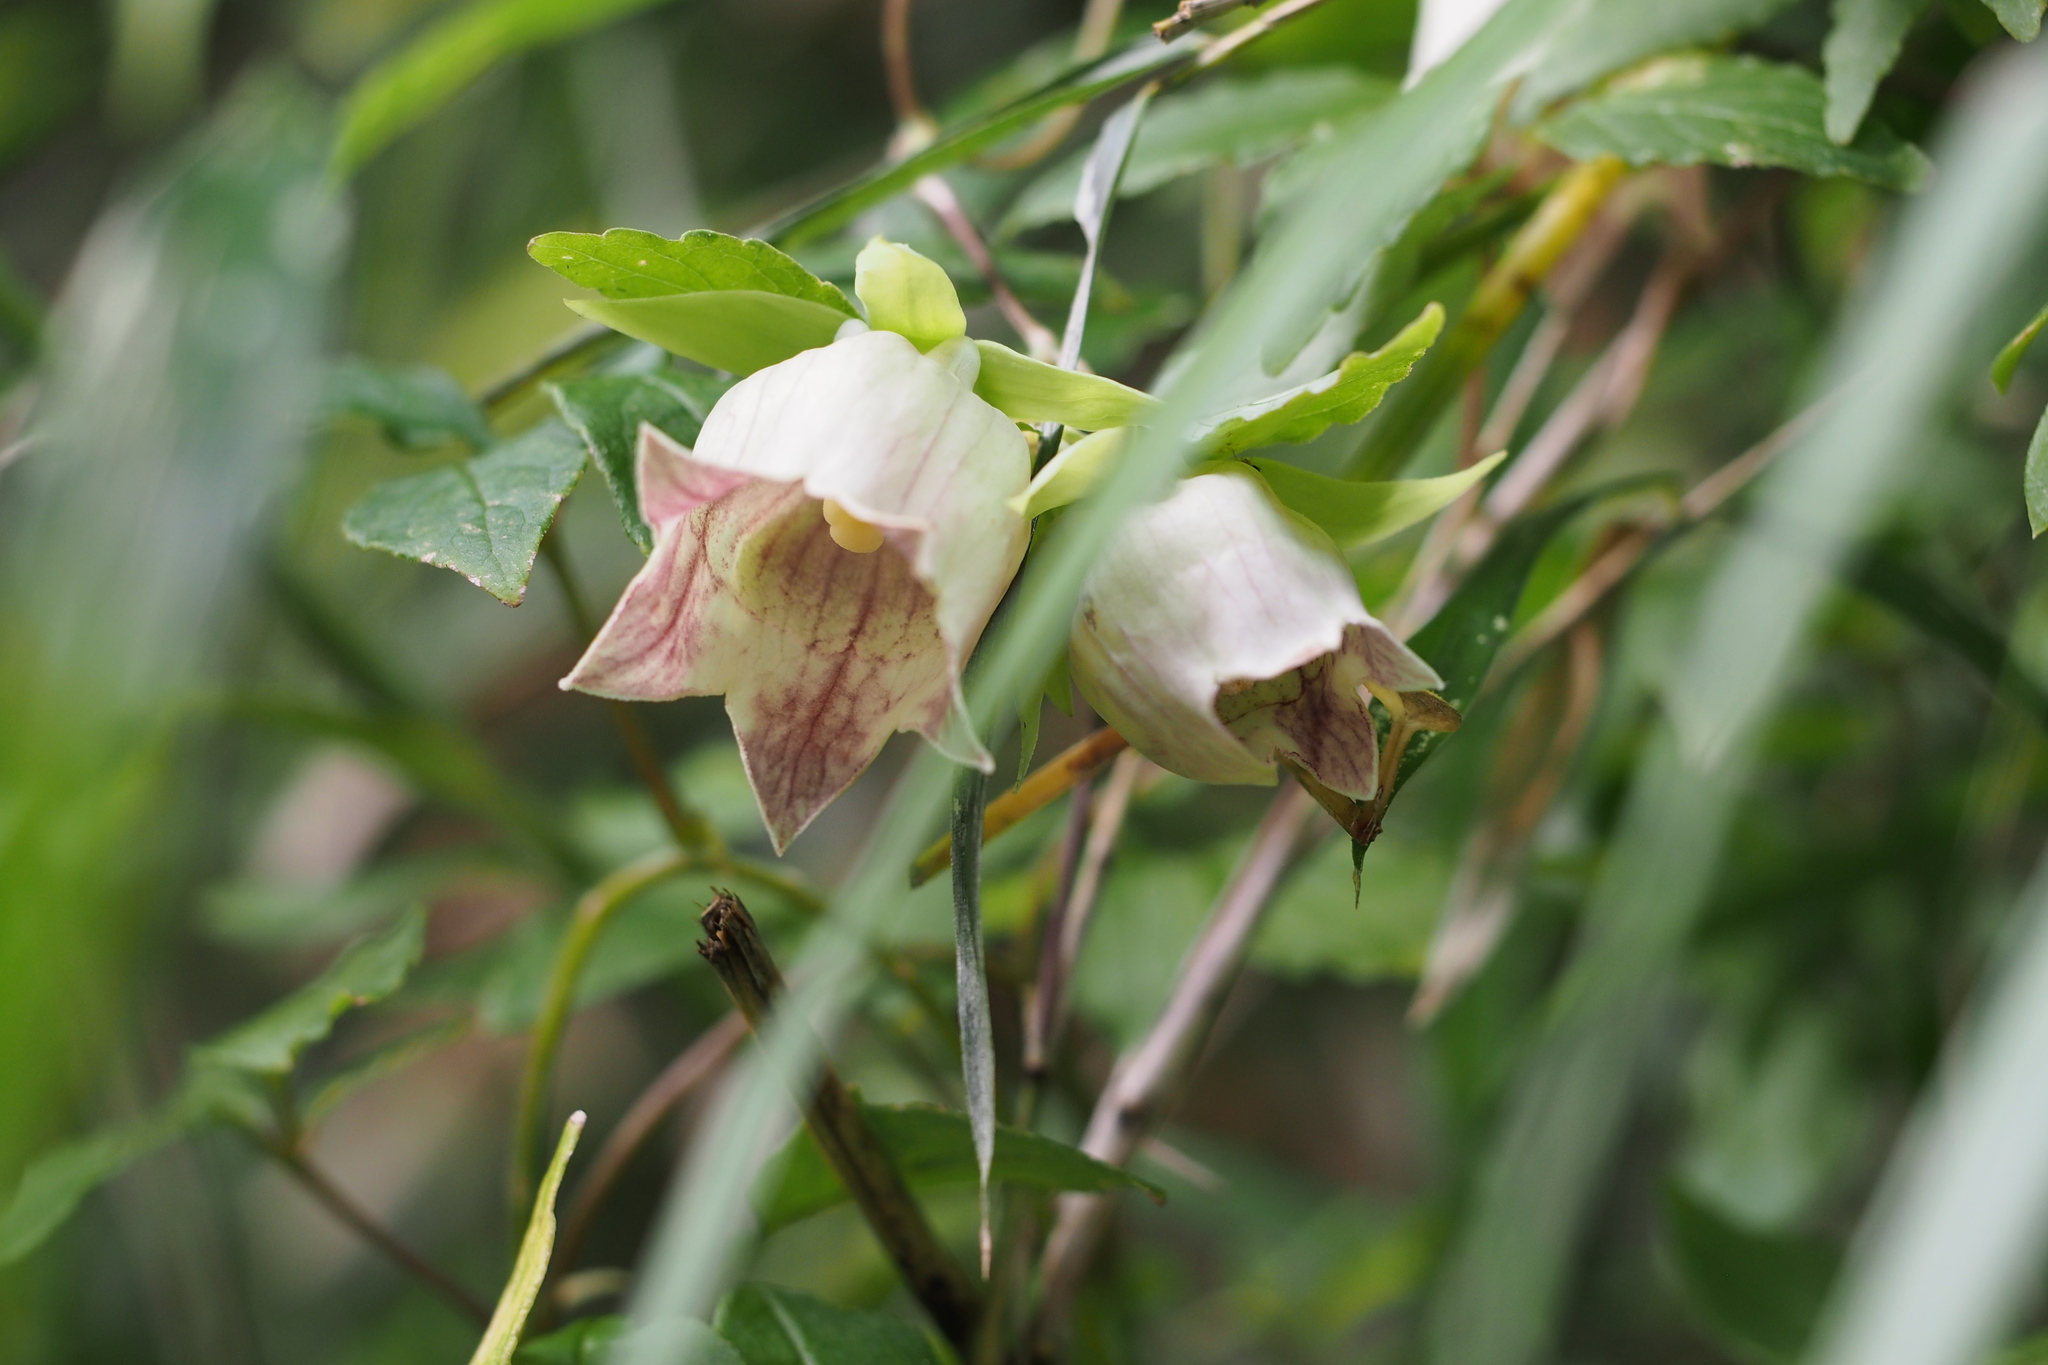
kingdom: Plantae
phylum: Tracheophyta
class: Magnoliopsida
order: Asterales
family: Campanulaceae
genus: Codonopsis
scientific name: Codonopsis lanceolata
